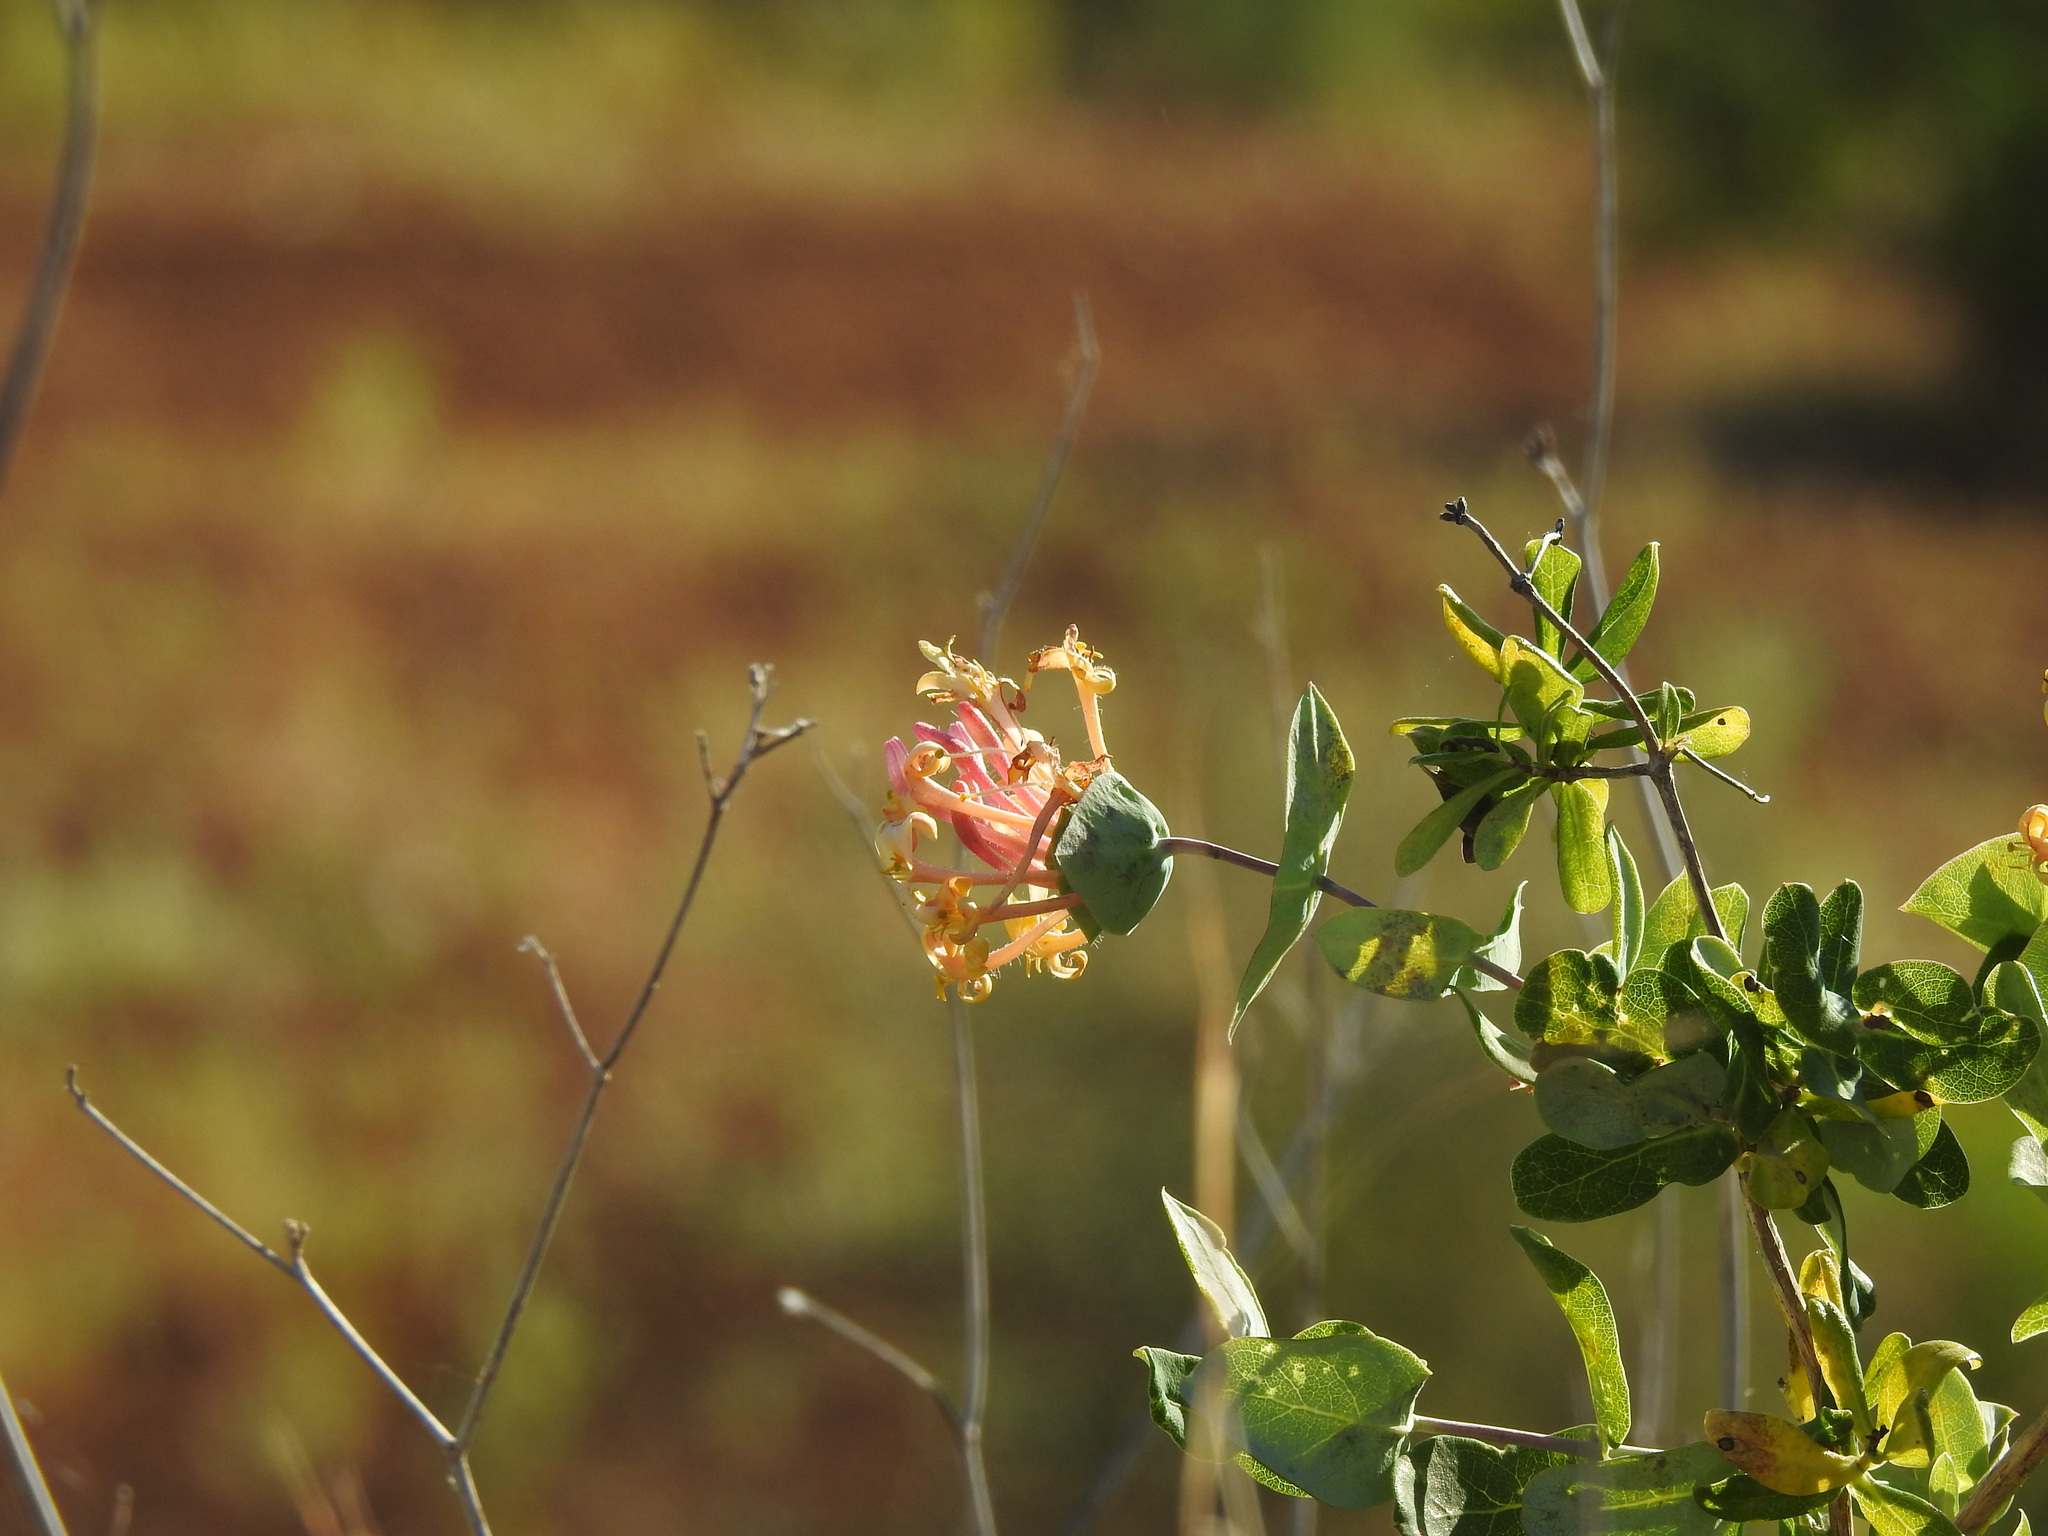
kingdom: Plantae
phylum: Tracheophyta
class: Magnoliopsida
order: Dipsacales
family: Caprifoliaceae
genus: Lonicera
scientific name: Lonicera implexa
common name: Minorca honeysuckle
